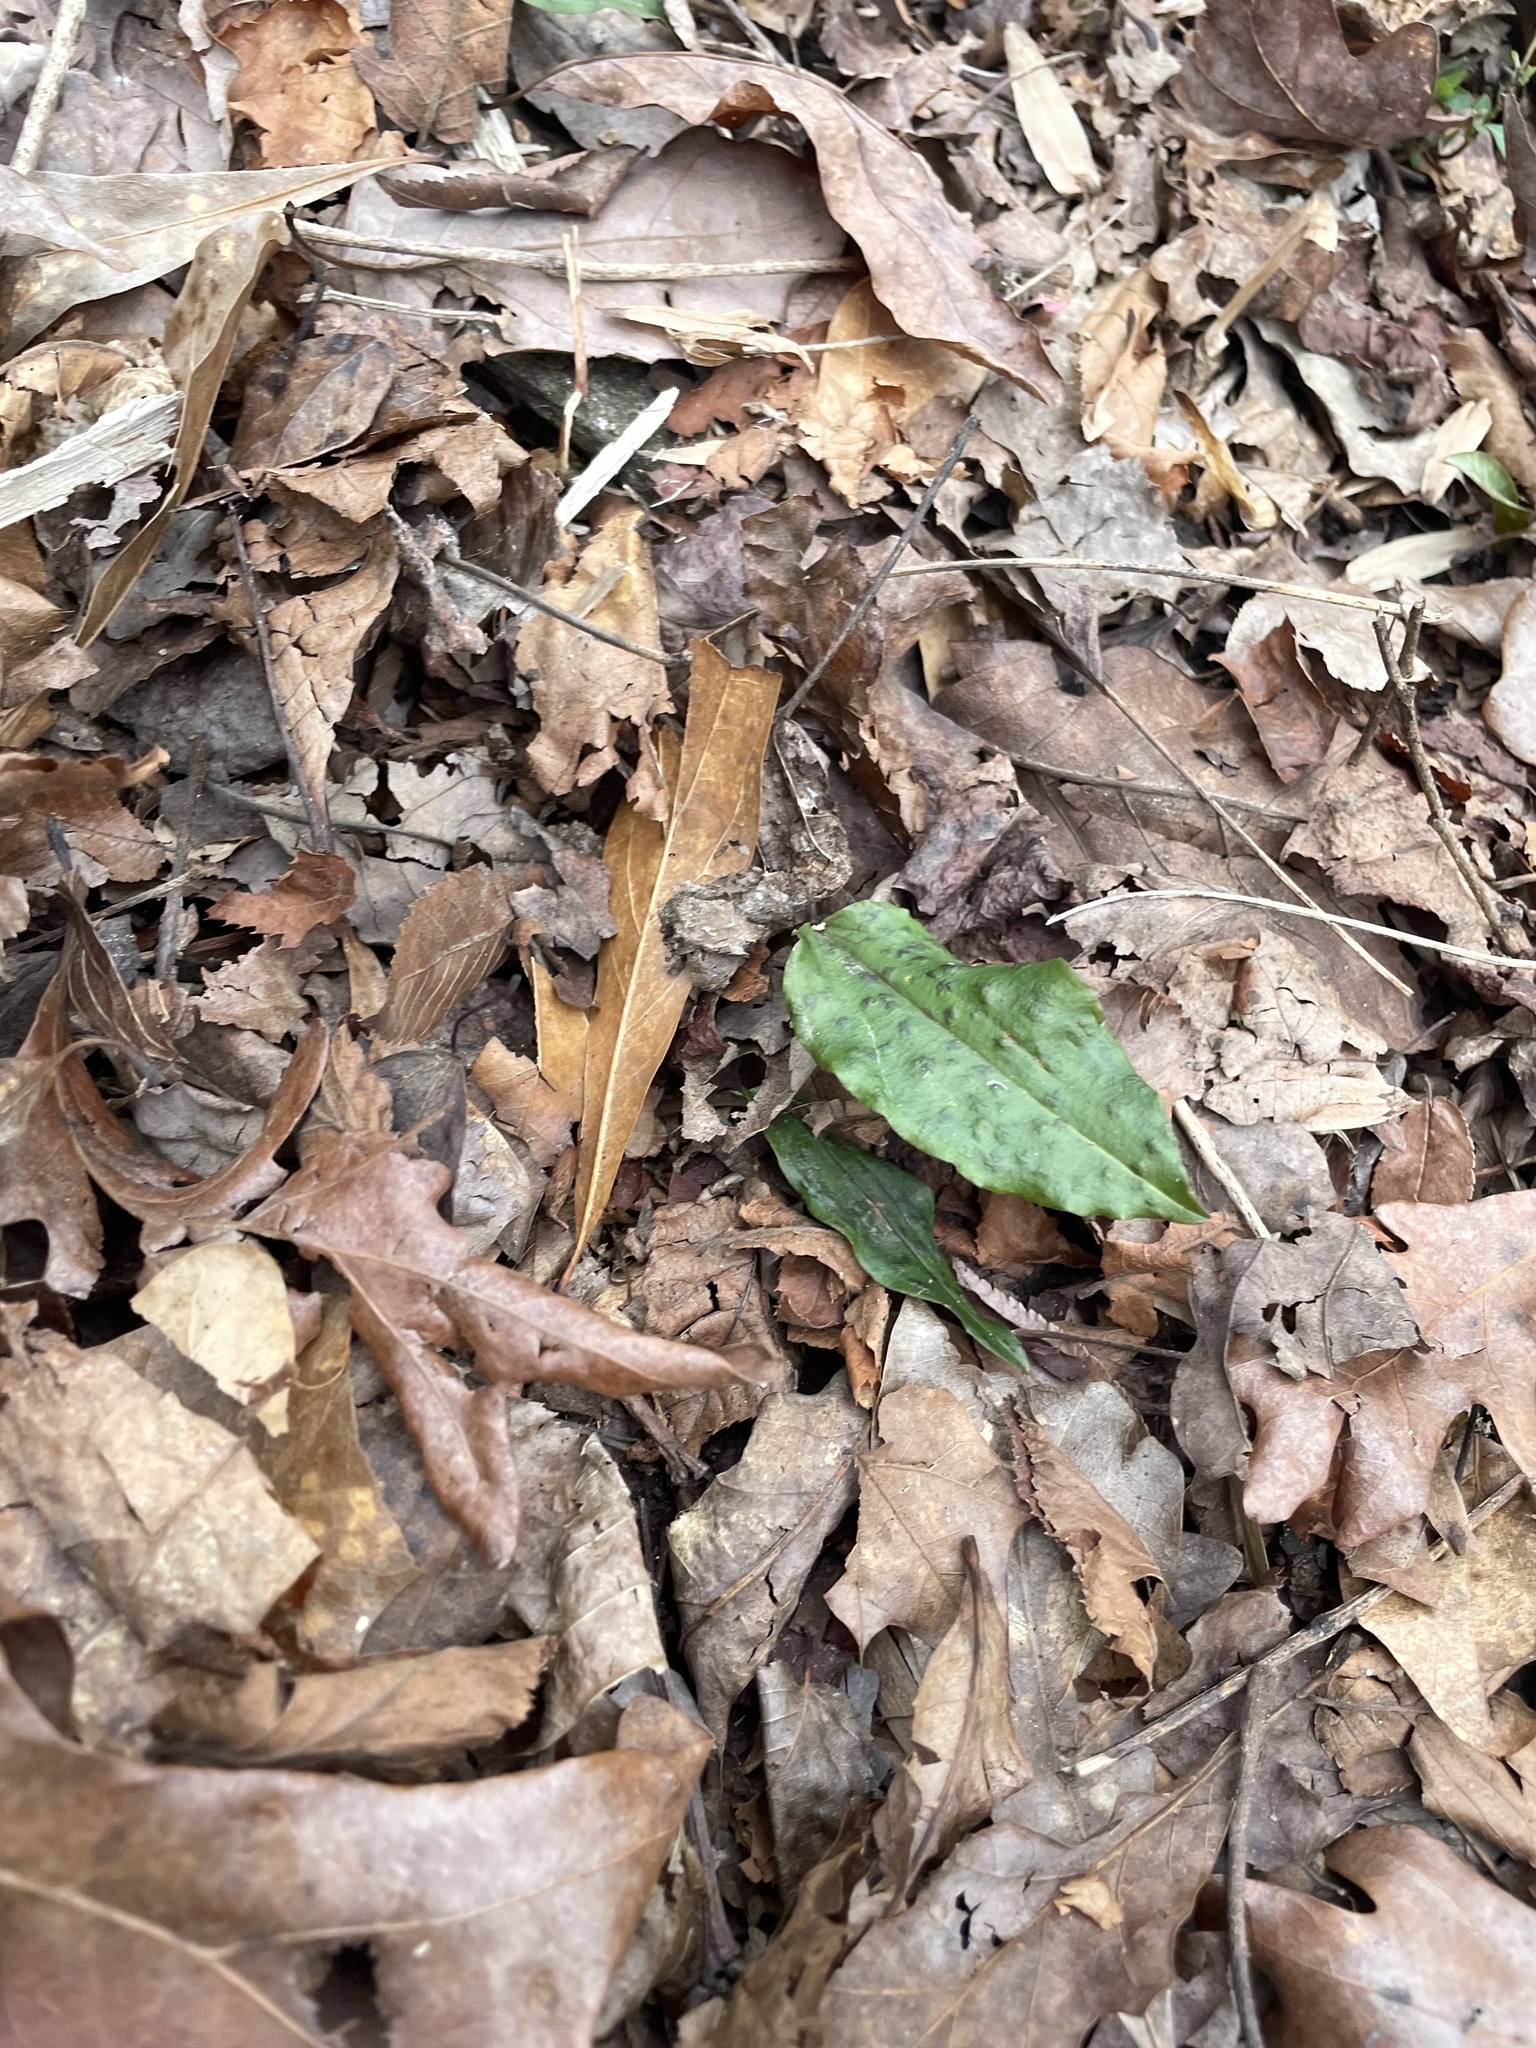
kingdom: Plantae
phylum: Tracheophyta
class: Liliopsida
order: Asparagales
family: Orchidaceae
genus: Tipularia
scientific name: Tipularia discolor
